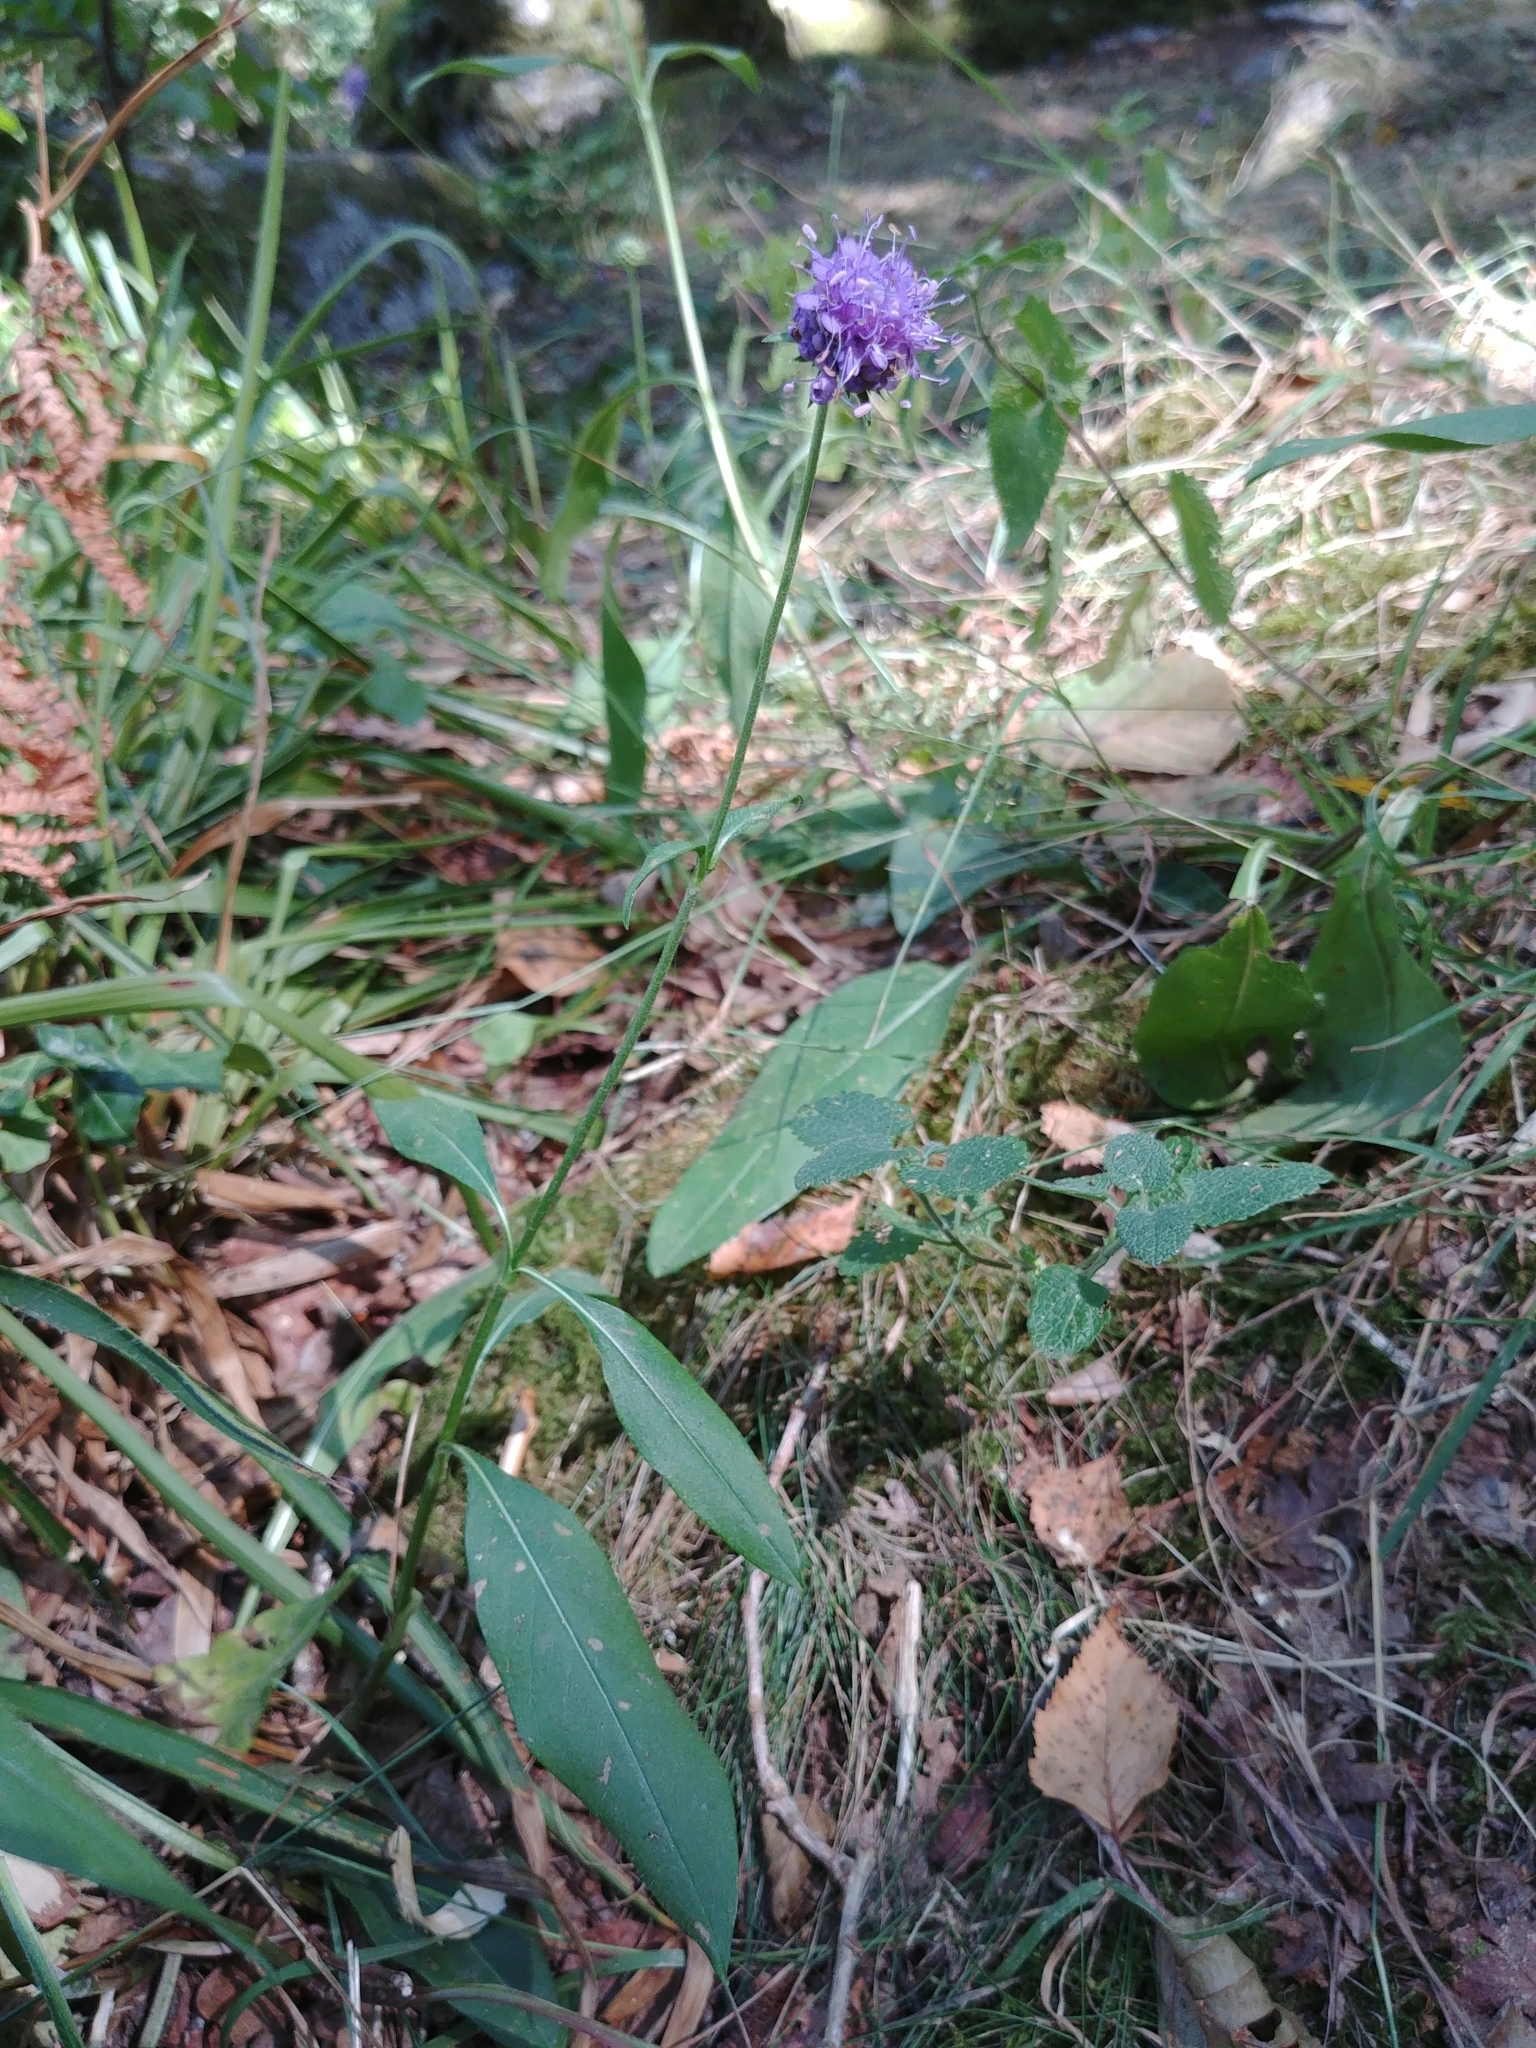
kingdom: Plantae
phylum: Tracheophyta
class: Magnoliopsida
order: Dipsacales
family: Caprifoliaceae
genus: Succisa
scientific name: Succisa pratensis
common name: Devil's-bit
